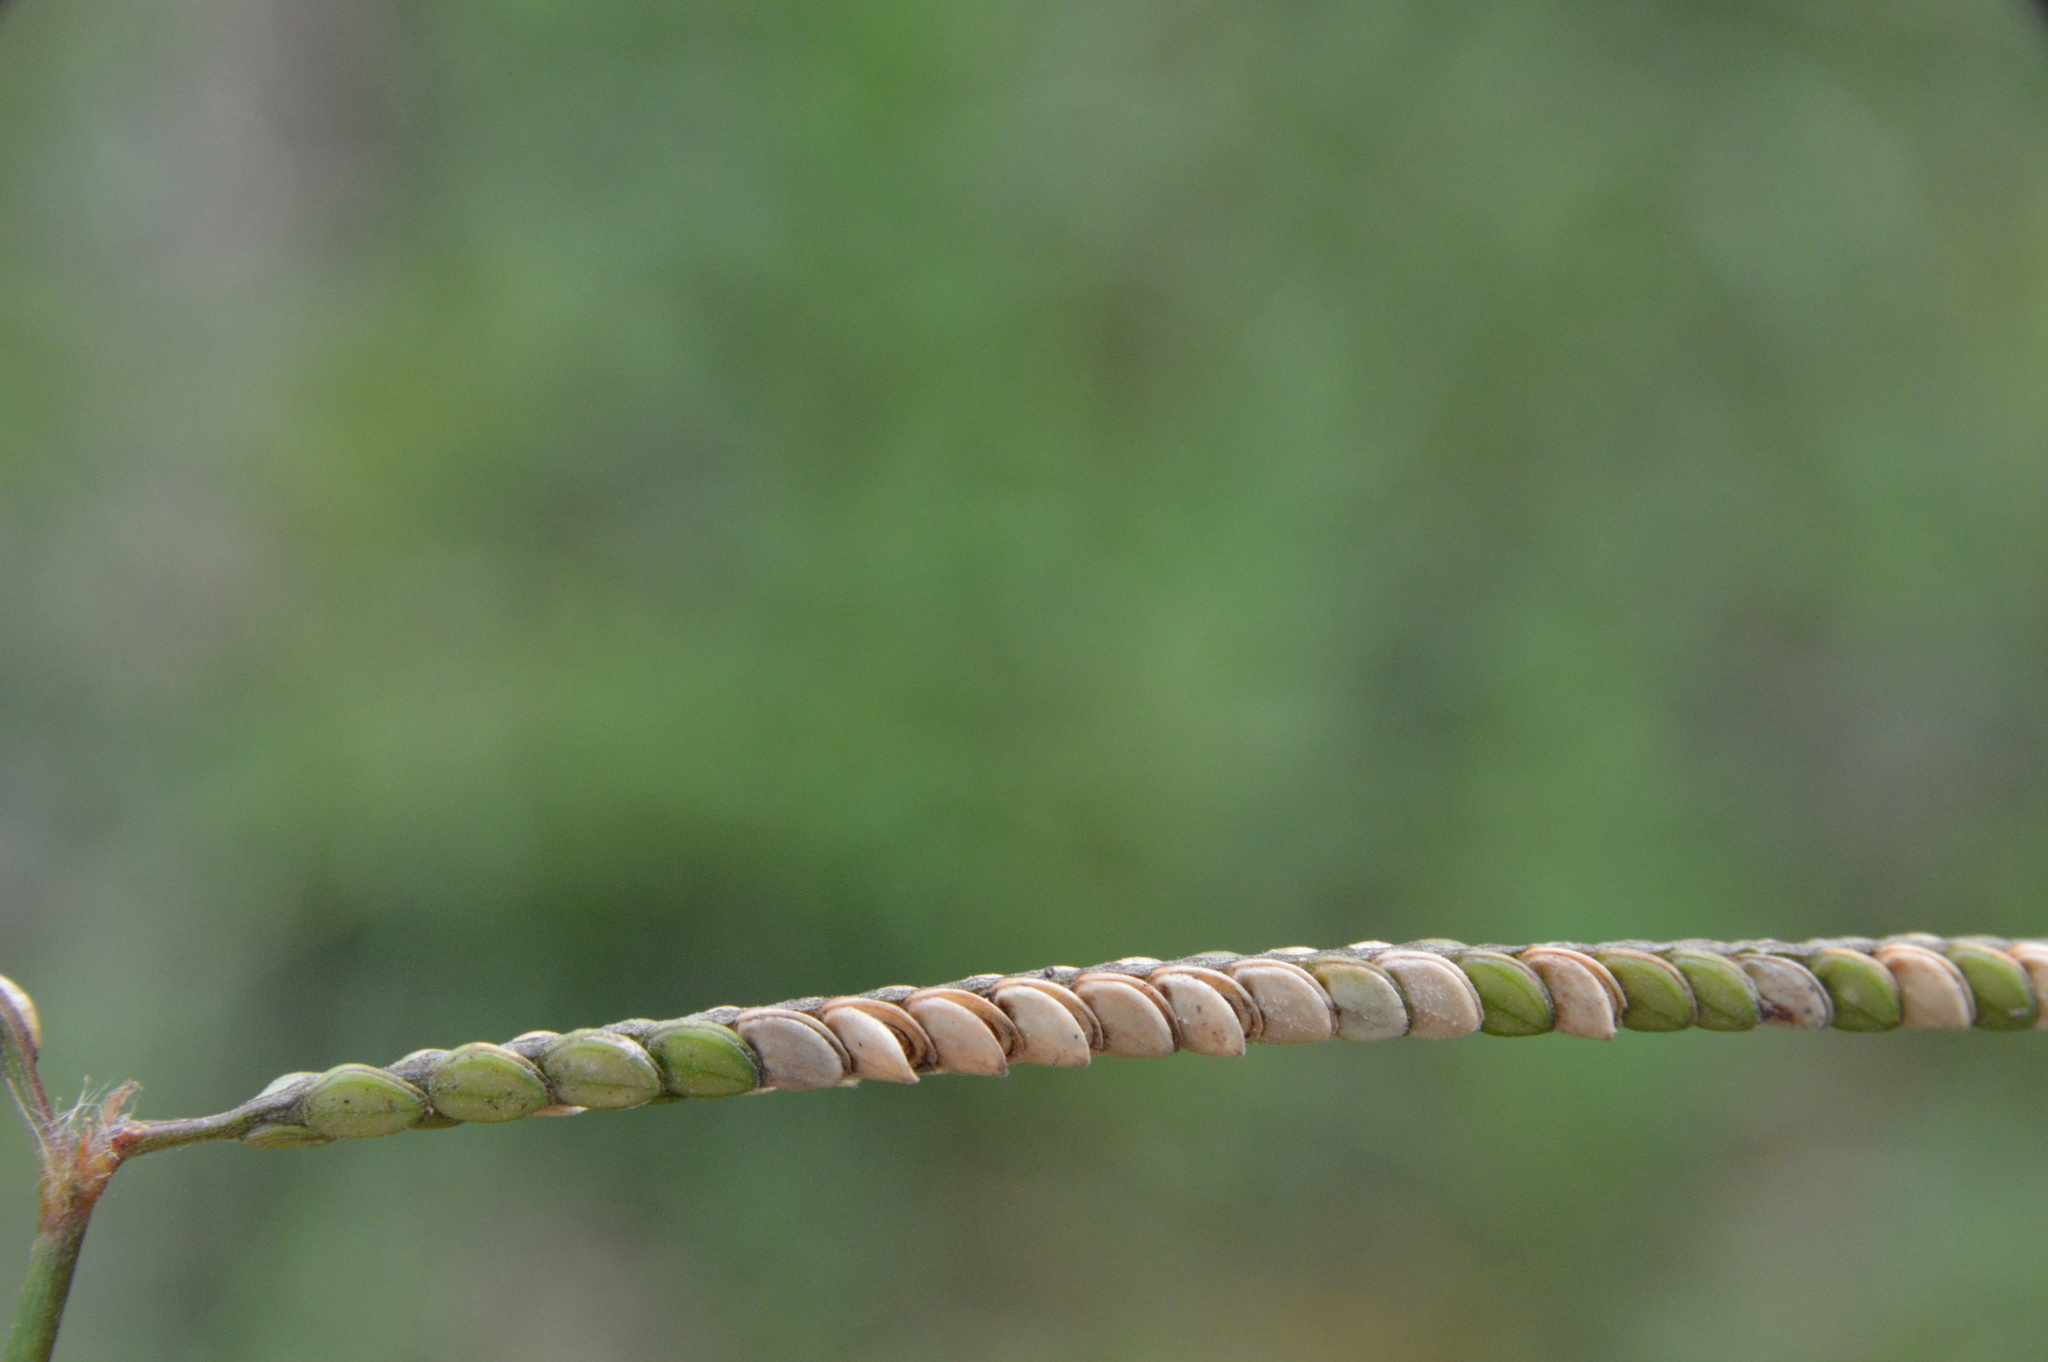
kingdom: Plantae
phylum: Tracheophyta
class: Liliopsida
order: Poales
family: Poaceae
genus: Paspalum
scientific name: Paspalum notatum
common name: Bahiagrass
